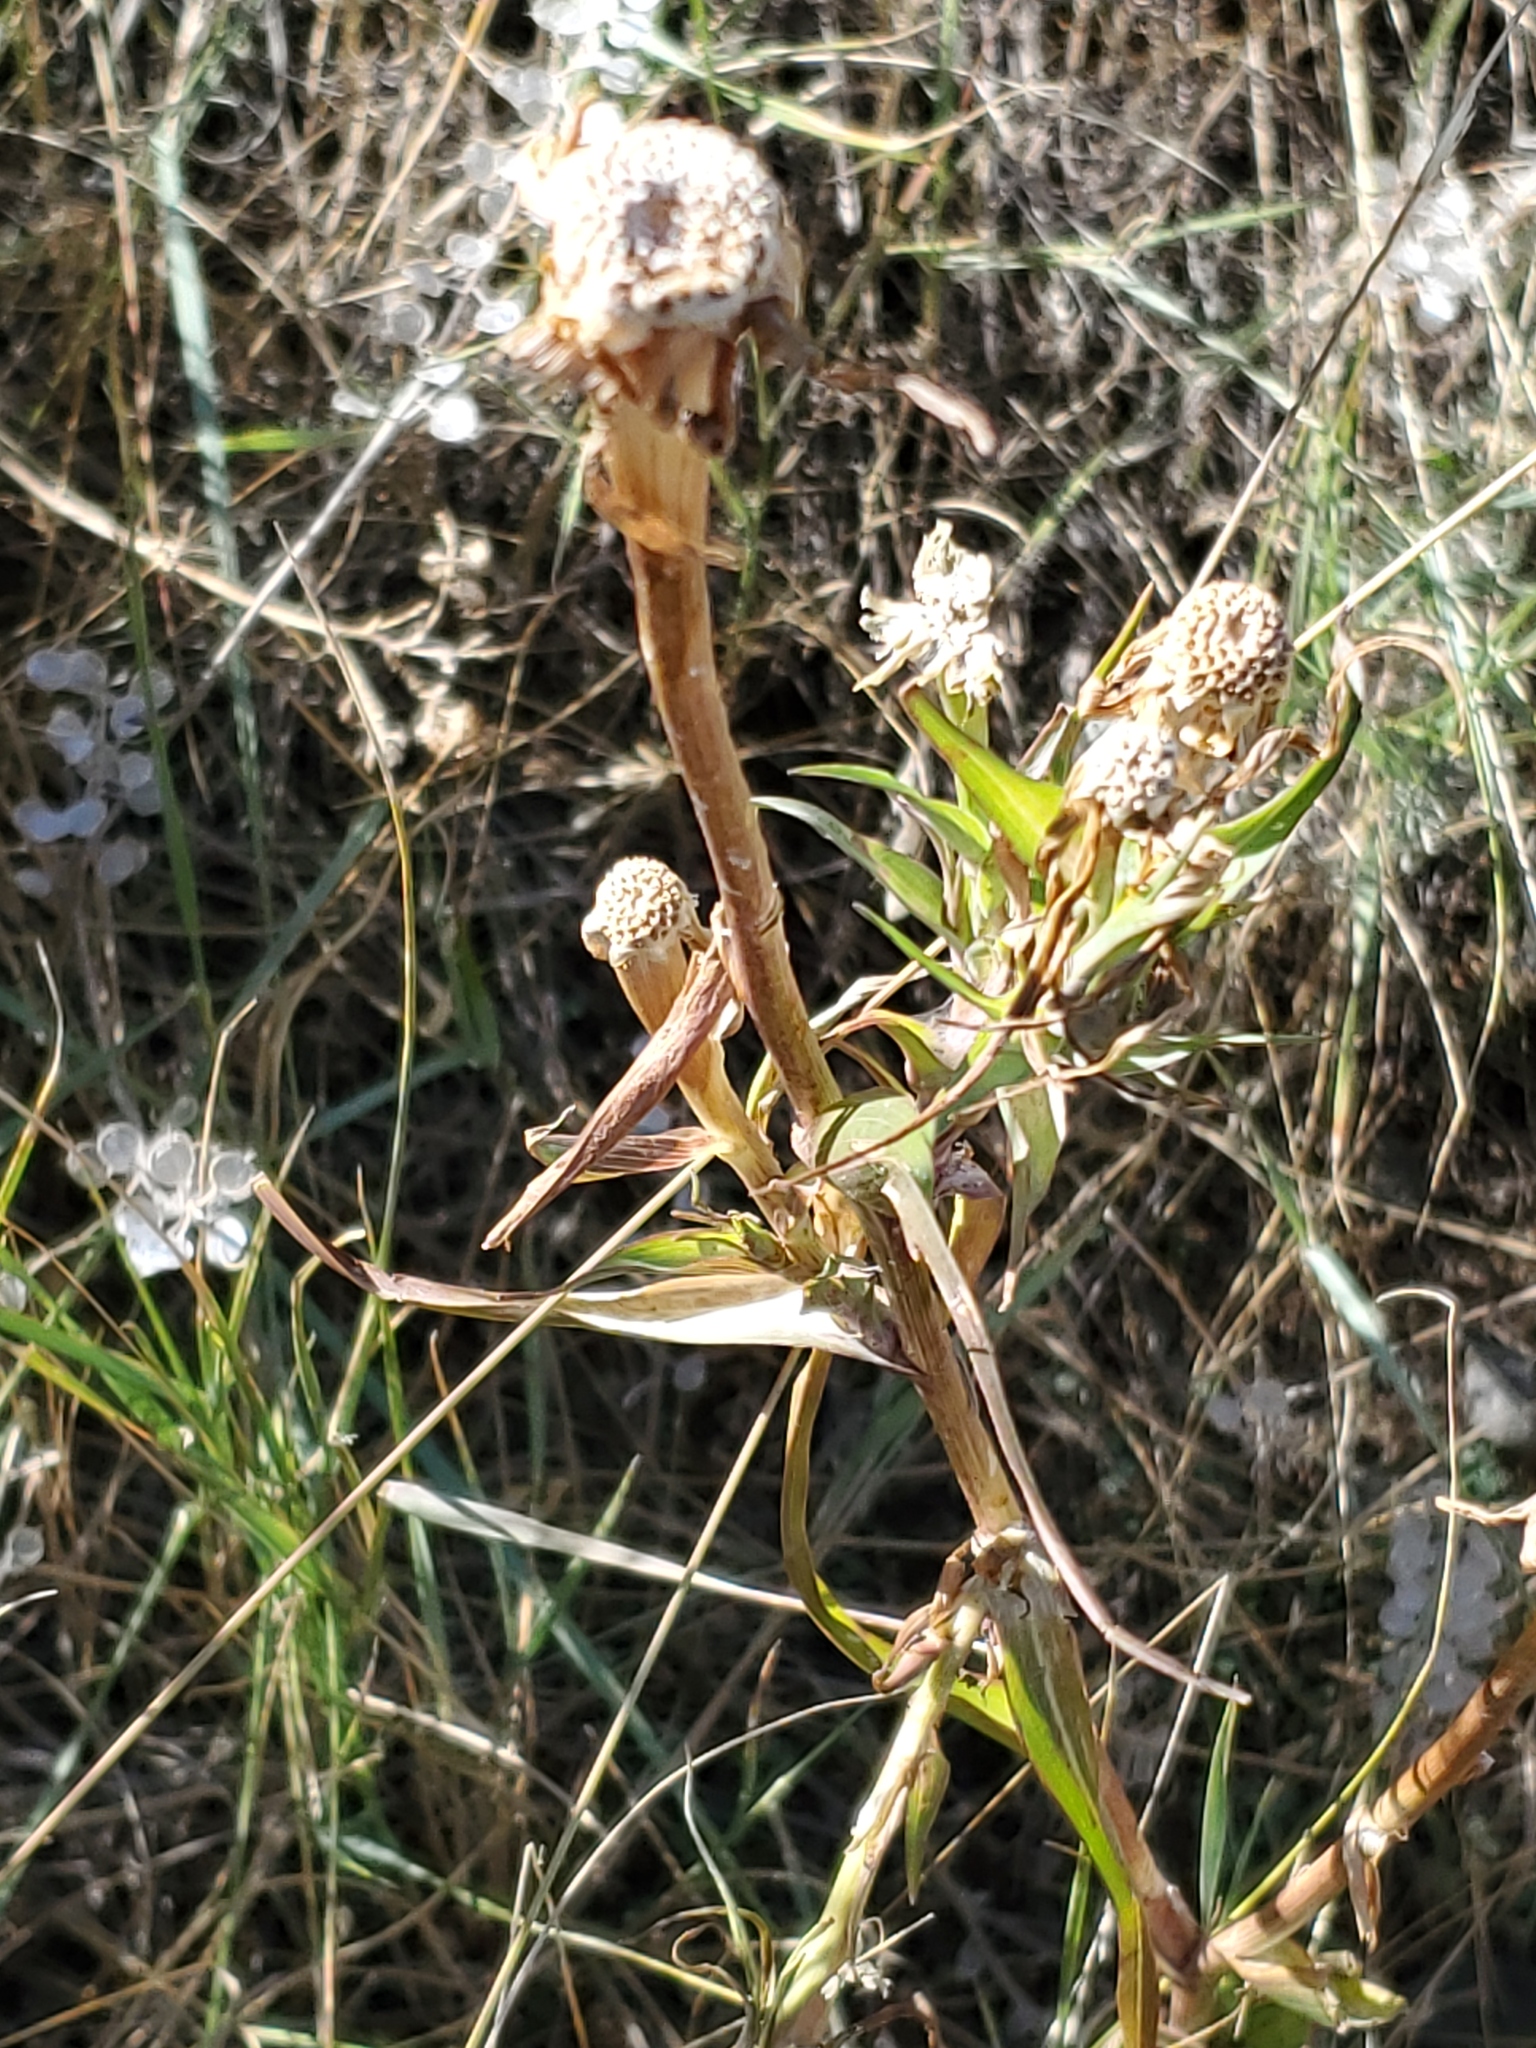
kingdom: Plantae
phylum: Tracheophyta
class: Magnoliopsida
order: Asterales
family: Asteraceae
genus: Tragopogon
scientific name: Tragopogon dubius
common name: Yellow salsify
